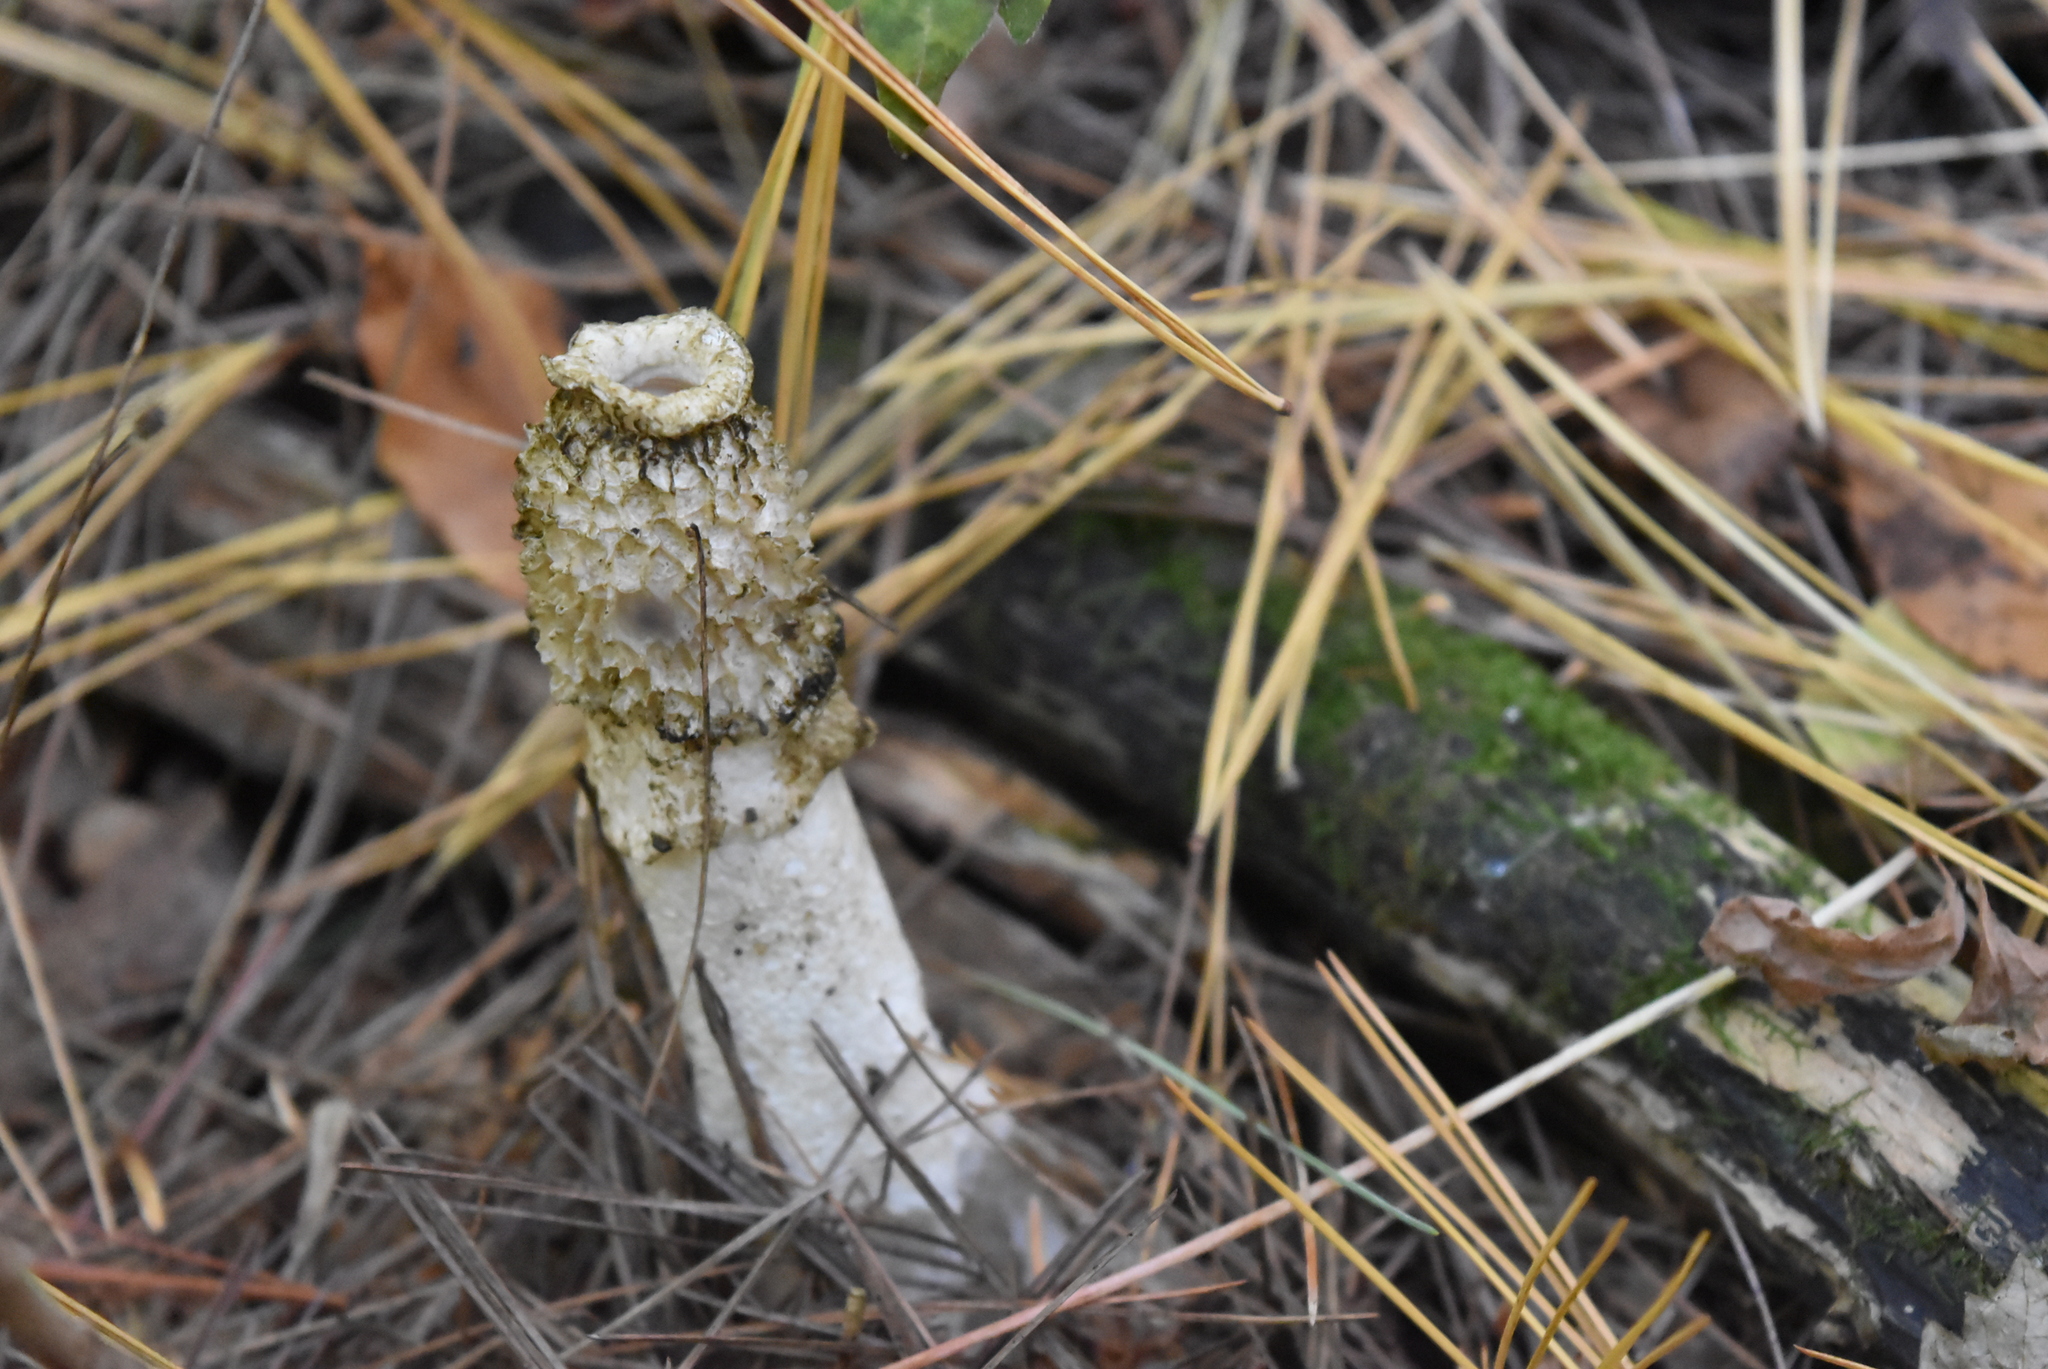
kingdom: Fungi
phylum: Basidiomycota
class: Agaricomycetes
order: Phallales
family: Phallaceae
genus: Phallus
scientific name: Phallus impudicus
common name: Common stinkhorn
